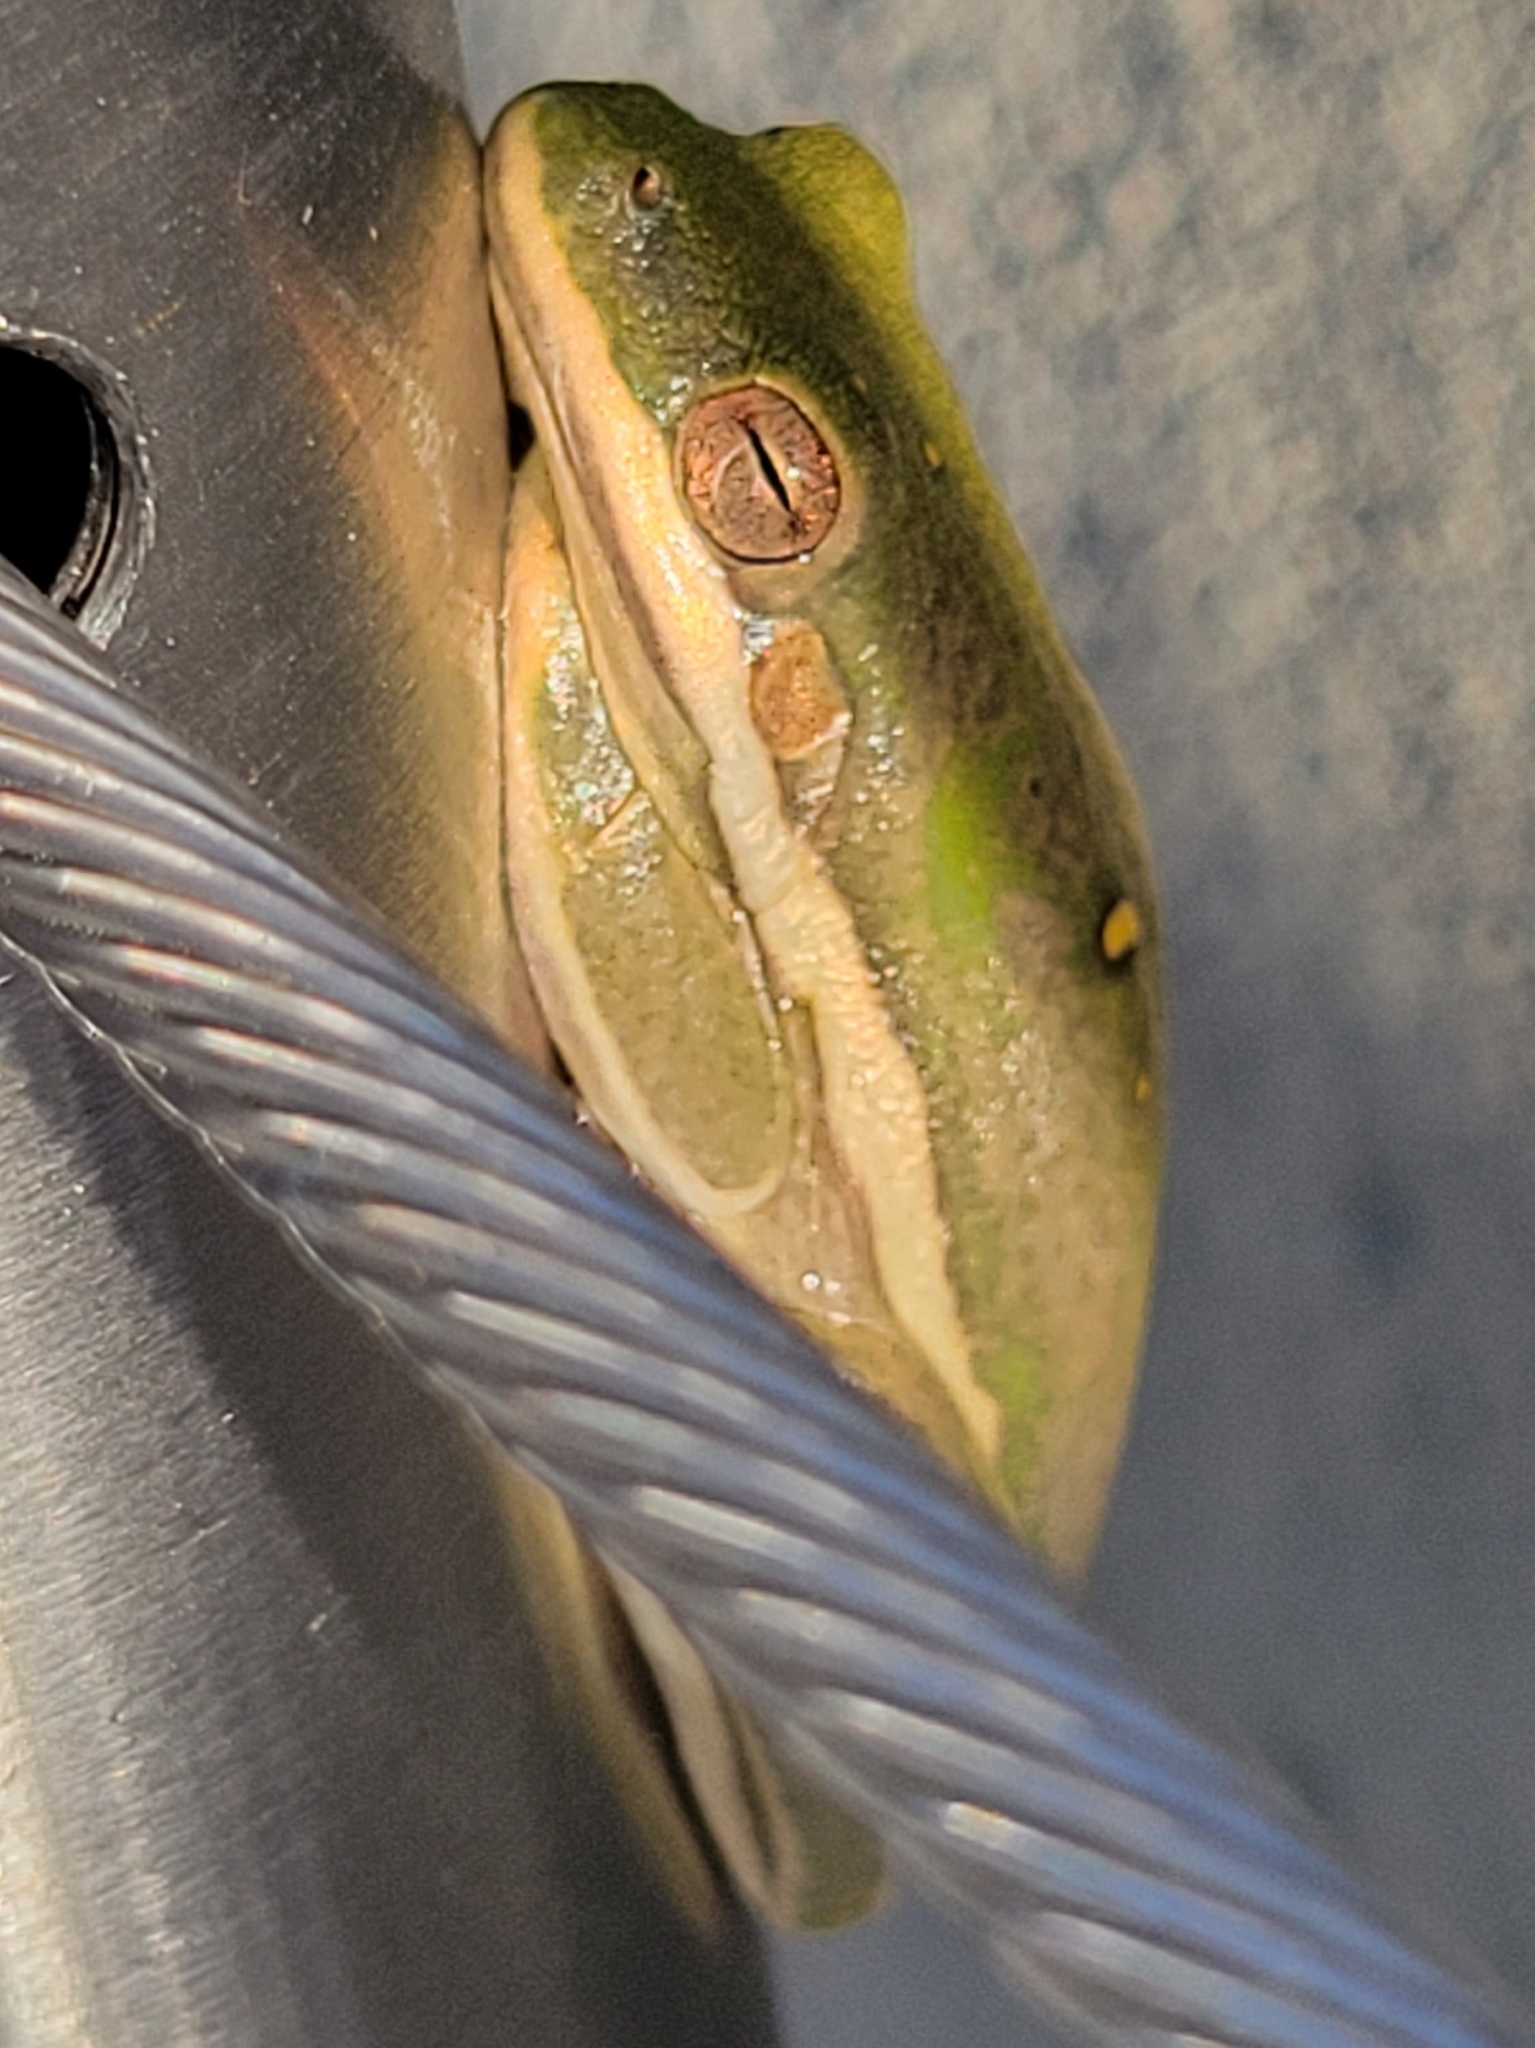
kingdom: Animalia
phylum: Chordata
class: Amphibia
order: Anura
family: Hylidae
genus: Dryophytes
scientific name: Dryophytes cinereus
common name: Green treefrog
